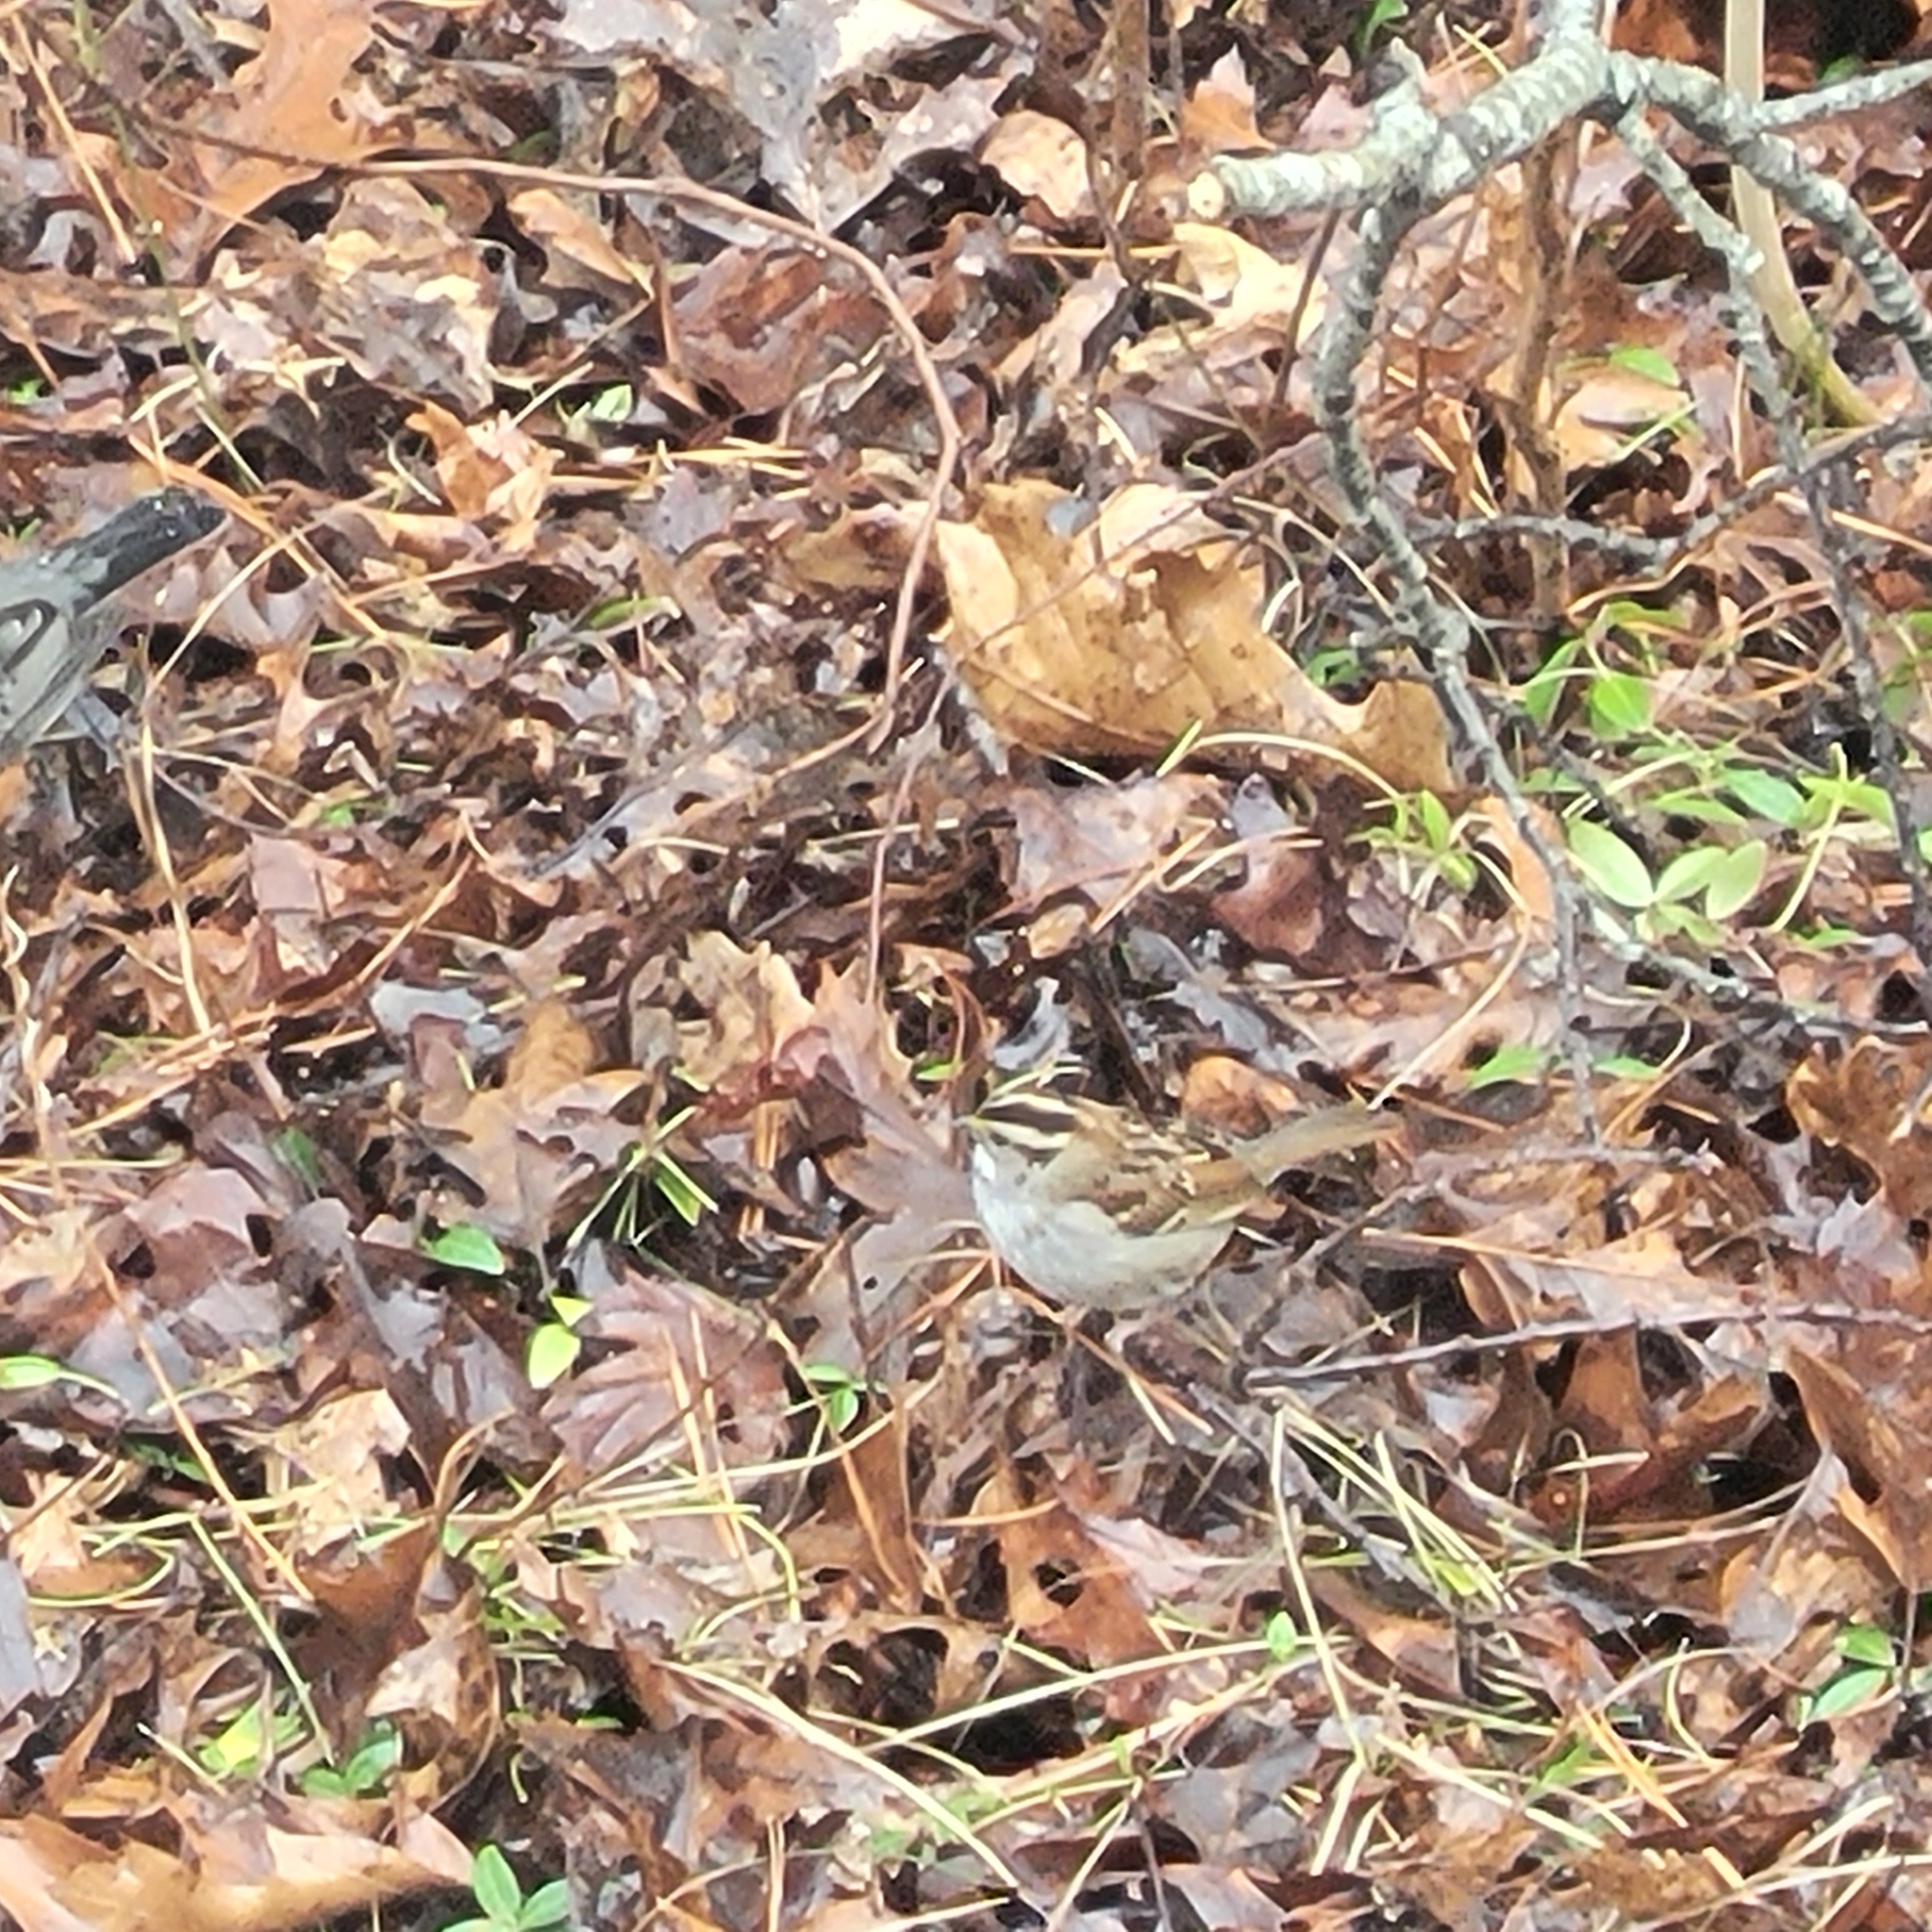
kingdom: Animalia
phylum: Chordata
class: Aves
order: Passeriformes
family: Passerellidae
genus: Zonotrichia
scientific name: Zonotrichia albicollis
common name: White-throated sparrow
